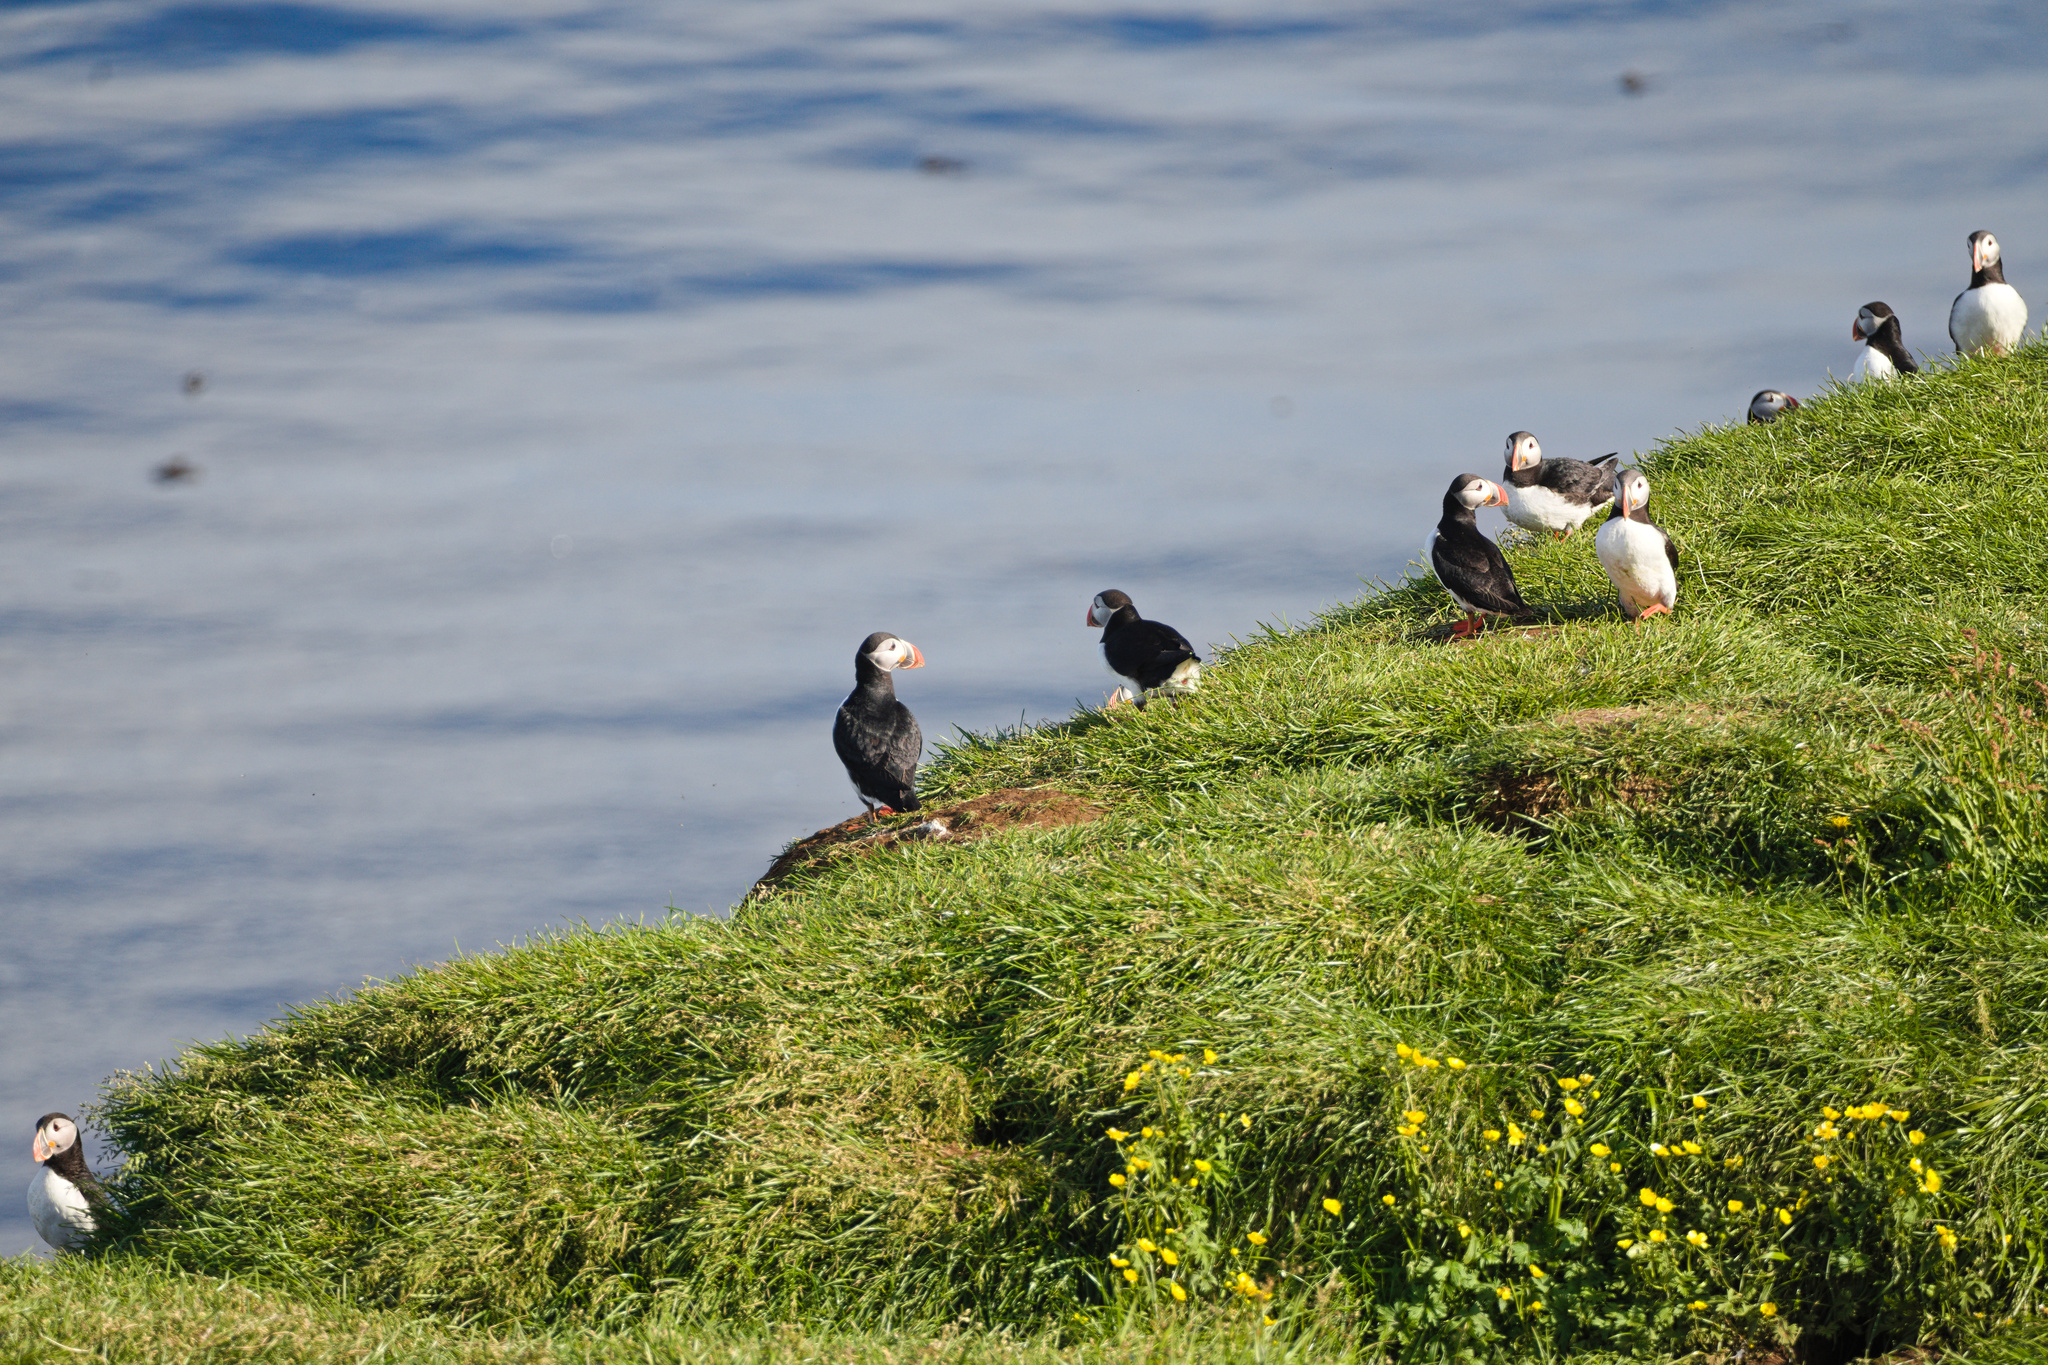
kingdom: Animalia
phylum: Chordata
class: Aves
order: Charadriiformes
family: Alcidae
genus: Fratercula
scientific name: Fratercula arctica
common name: Atlantic puffin
